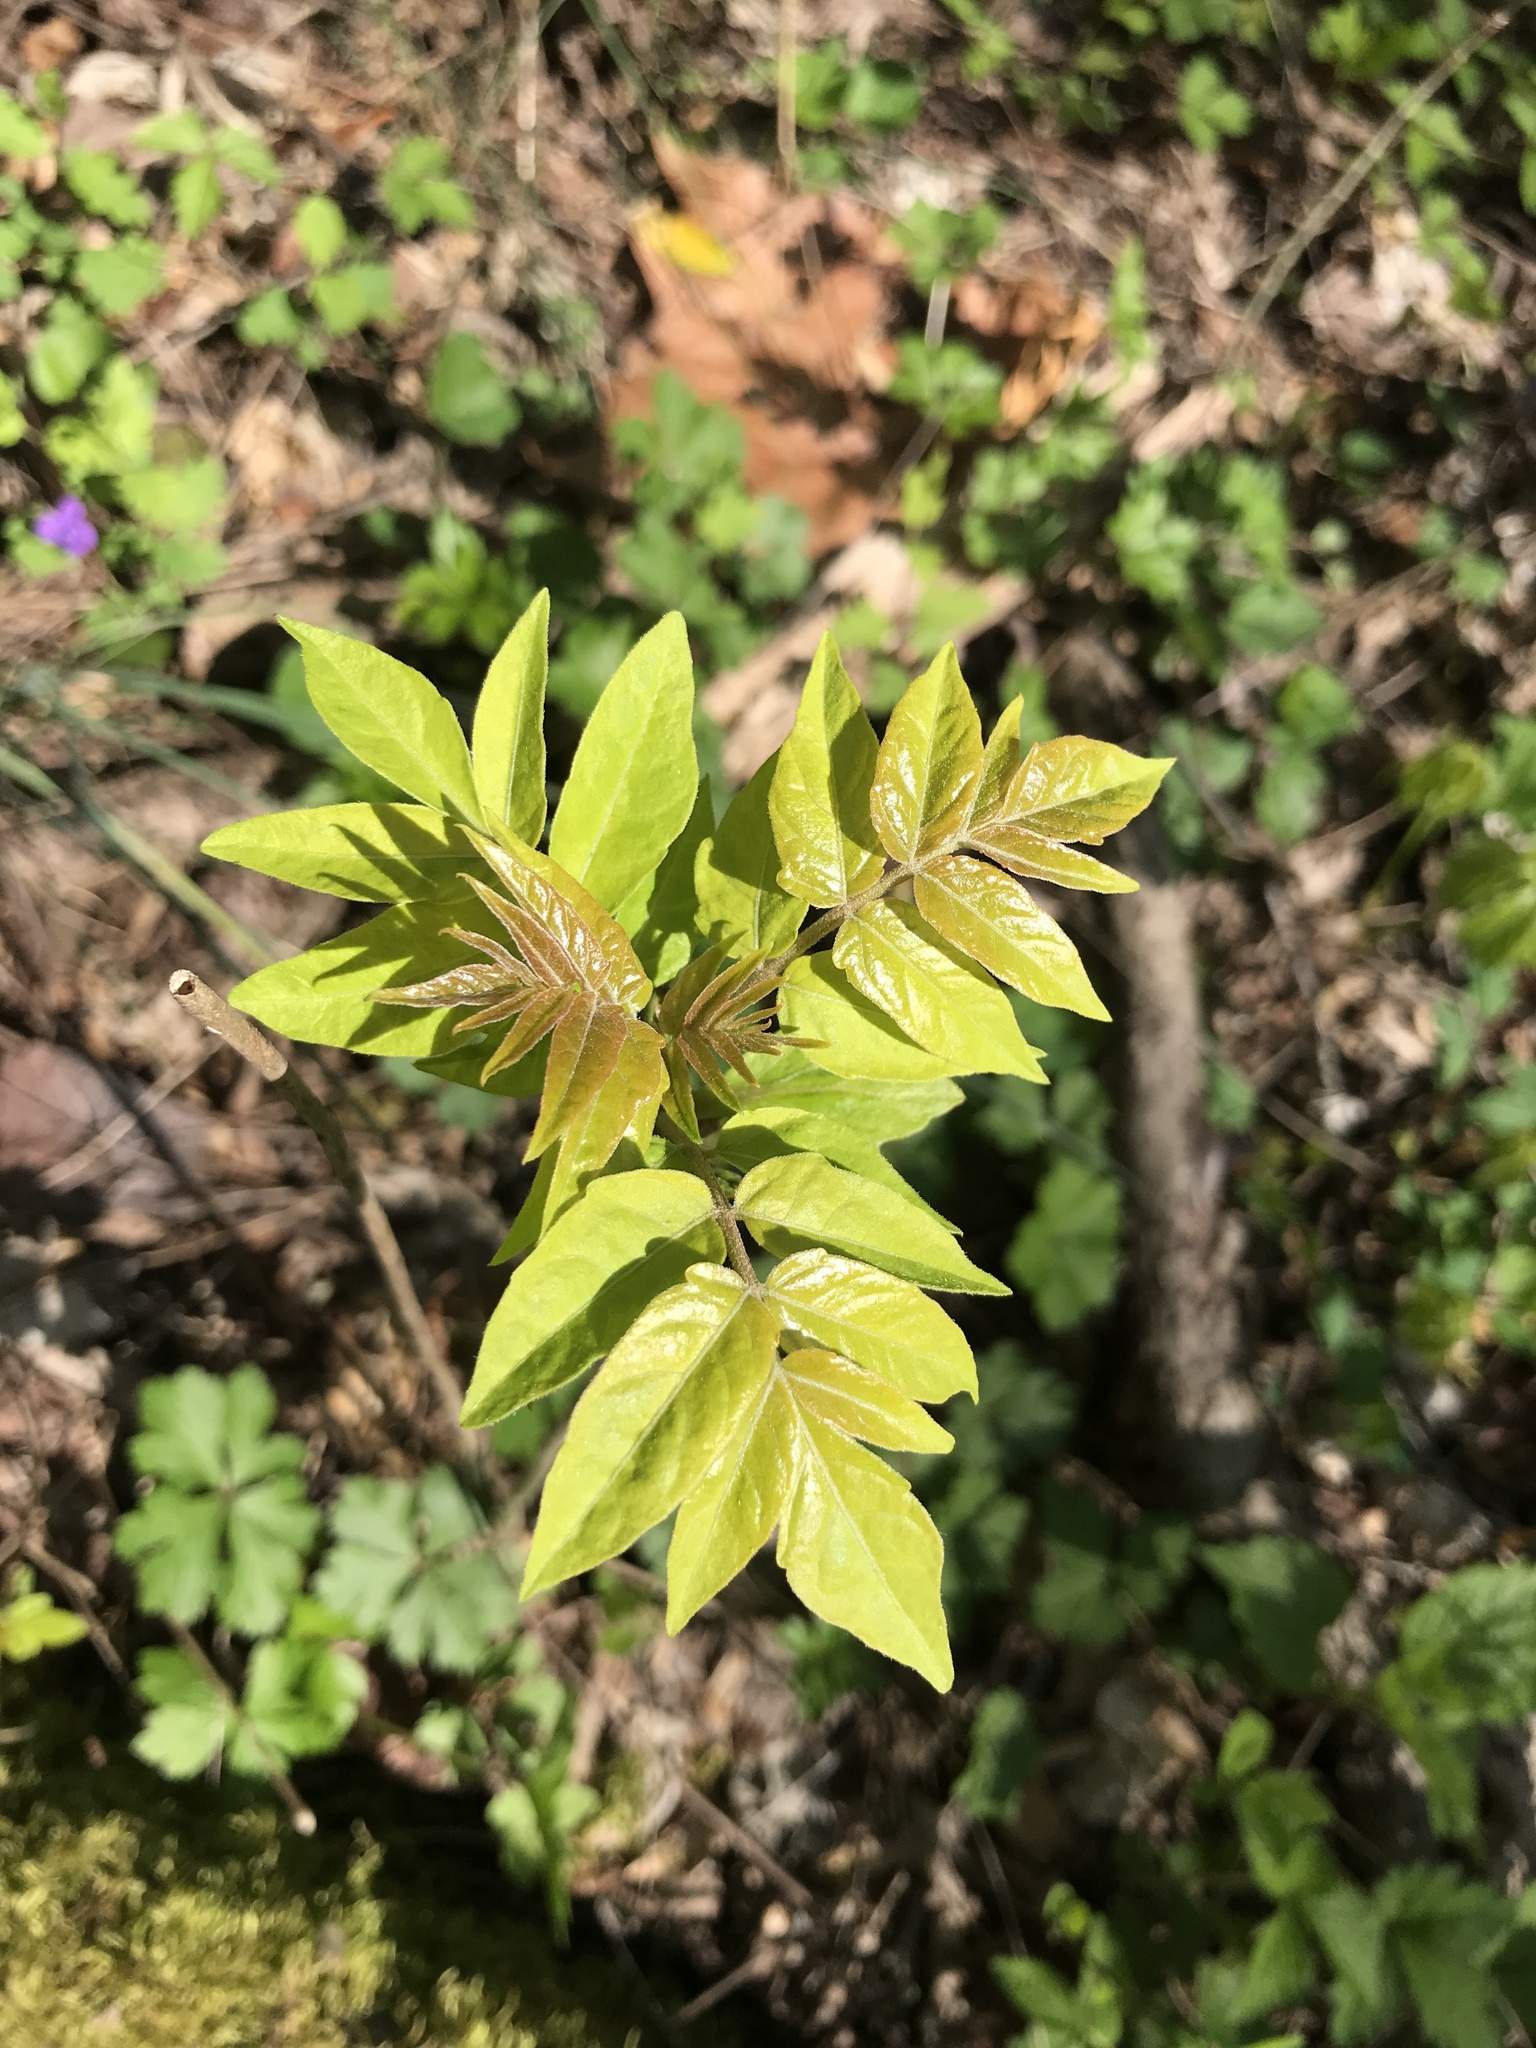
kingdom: Plantae
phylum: Tracheophyta
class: Magnoliopsida
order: Sapindales
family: Simaroubaceae
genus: Ailanthus
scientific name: Ailanthus altissima
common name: Tree-of-heaven
